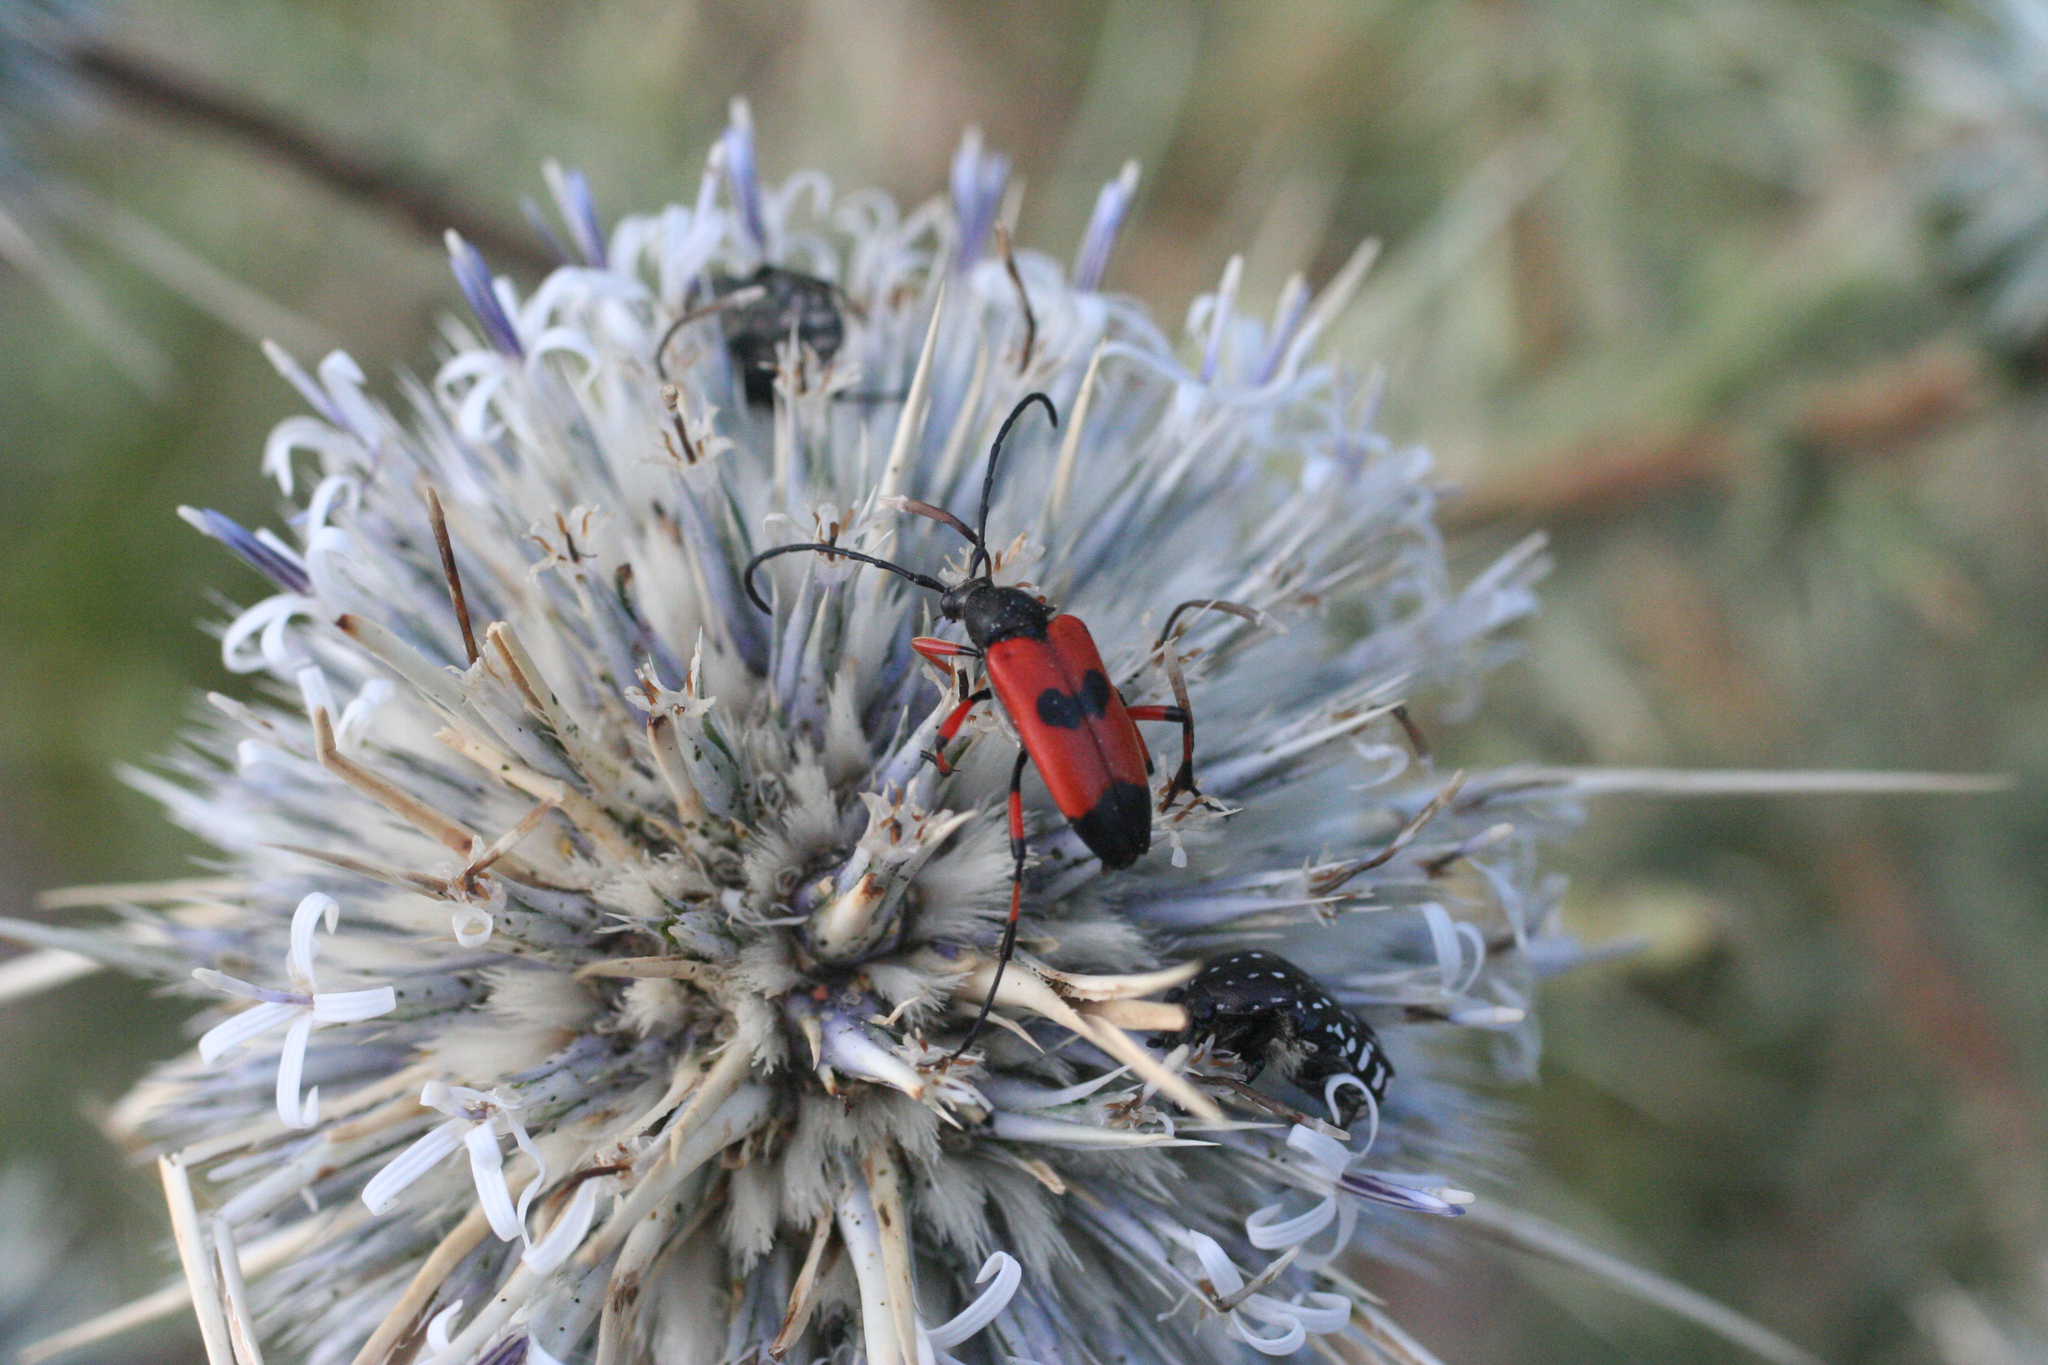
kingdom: Animalia
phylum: Arthropoda
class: Insecta
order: Coleoptera
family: Cerambycidae
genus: Nustera
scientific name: Nustera distigma
